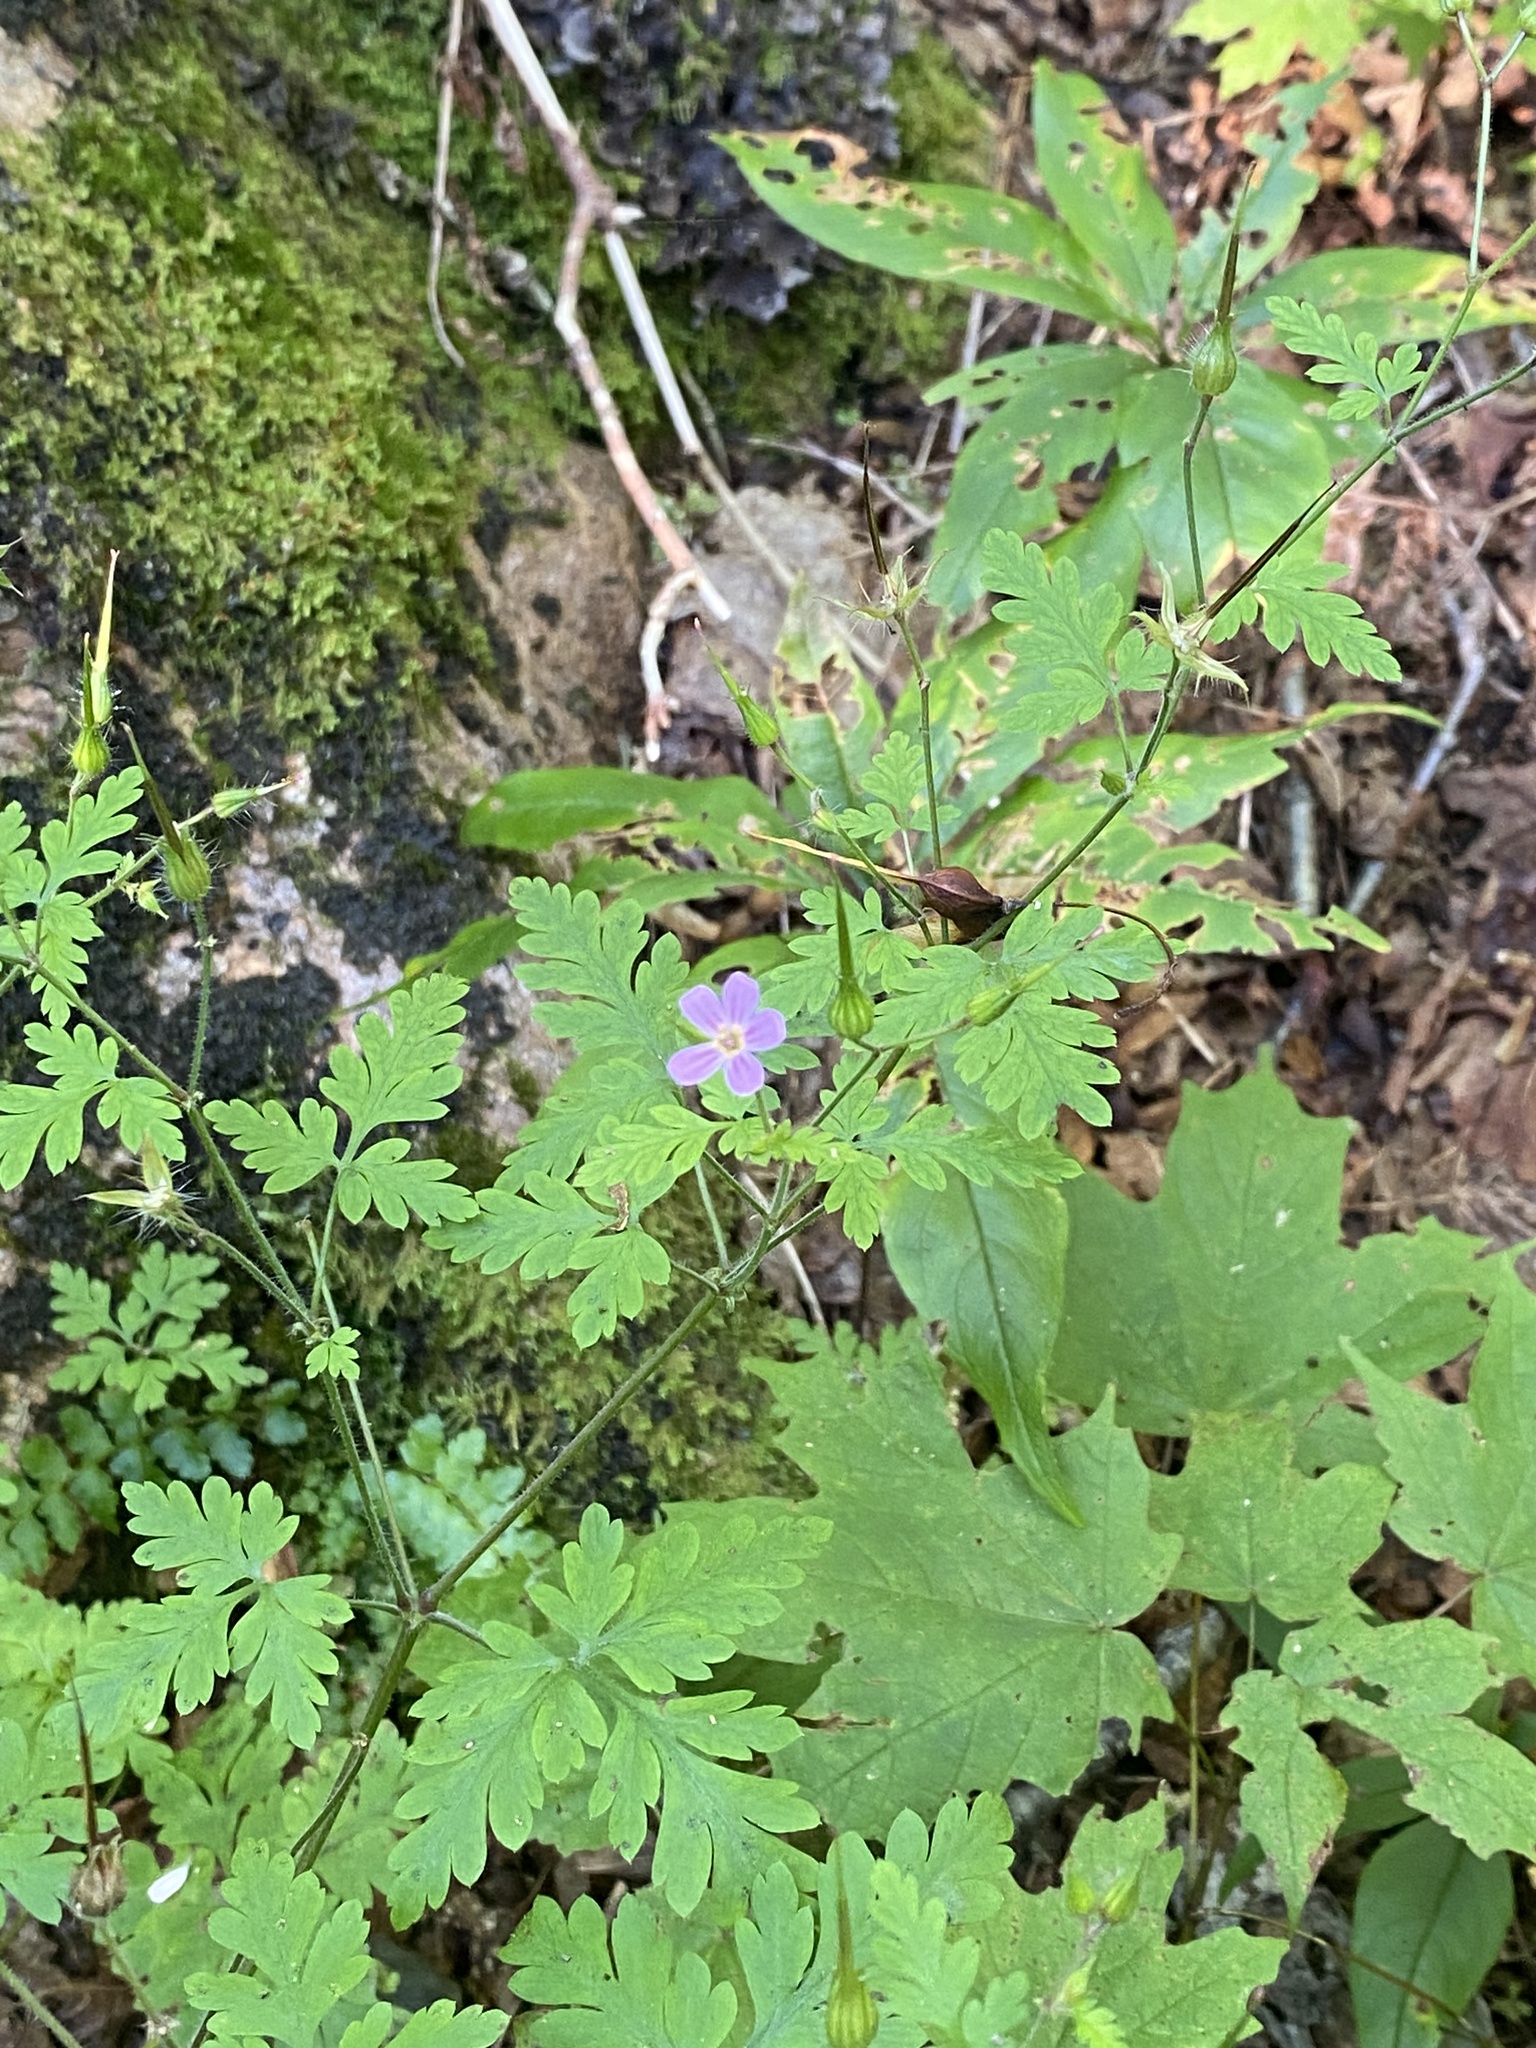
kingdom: Plantae
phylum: Tracheophyta
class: Magnoliopsida
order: Geraniales
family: Geraniaceae
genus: Geranium
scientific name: Geranium robertianum
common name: Herb-robert
